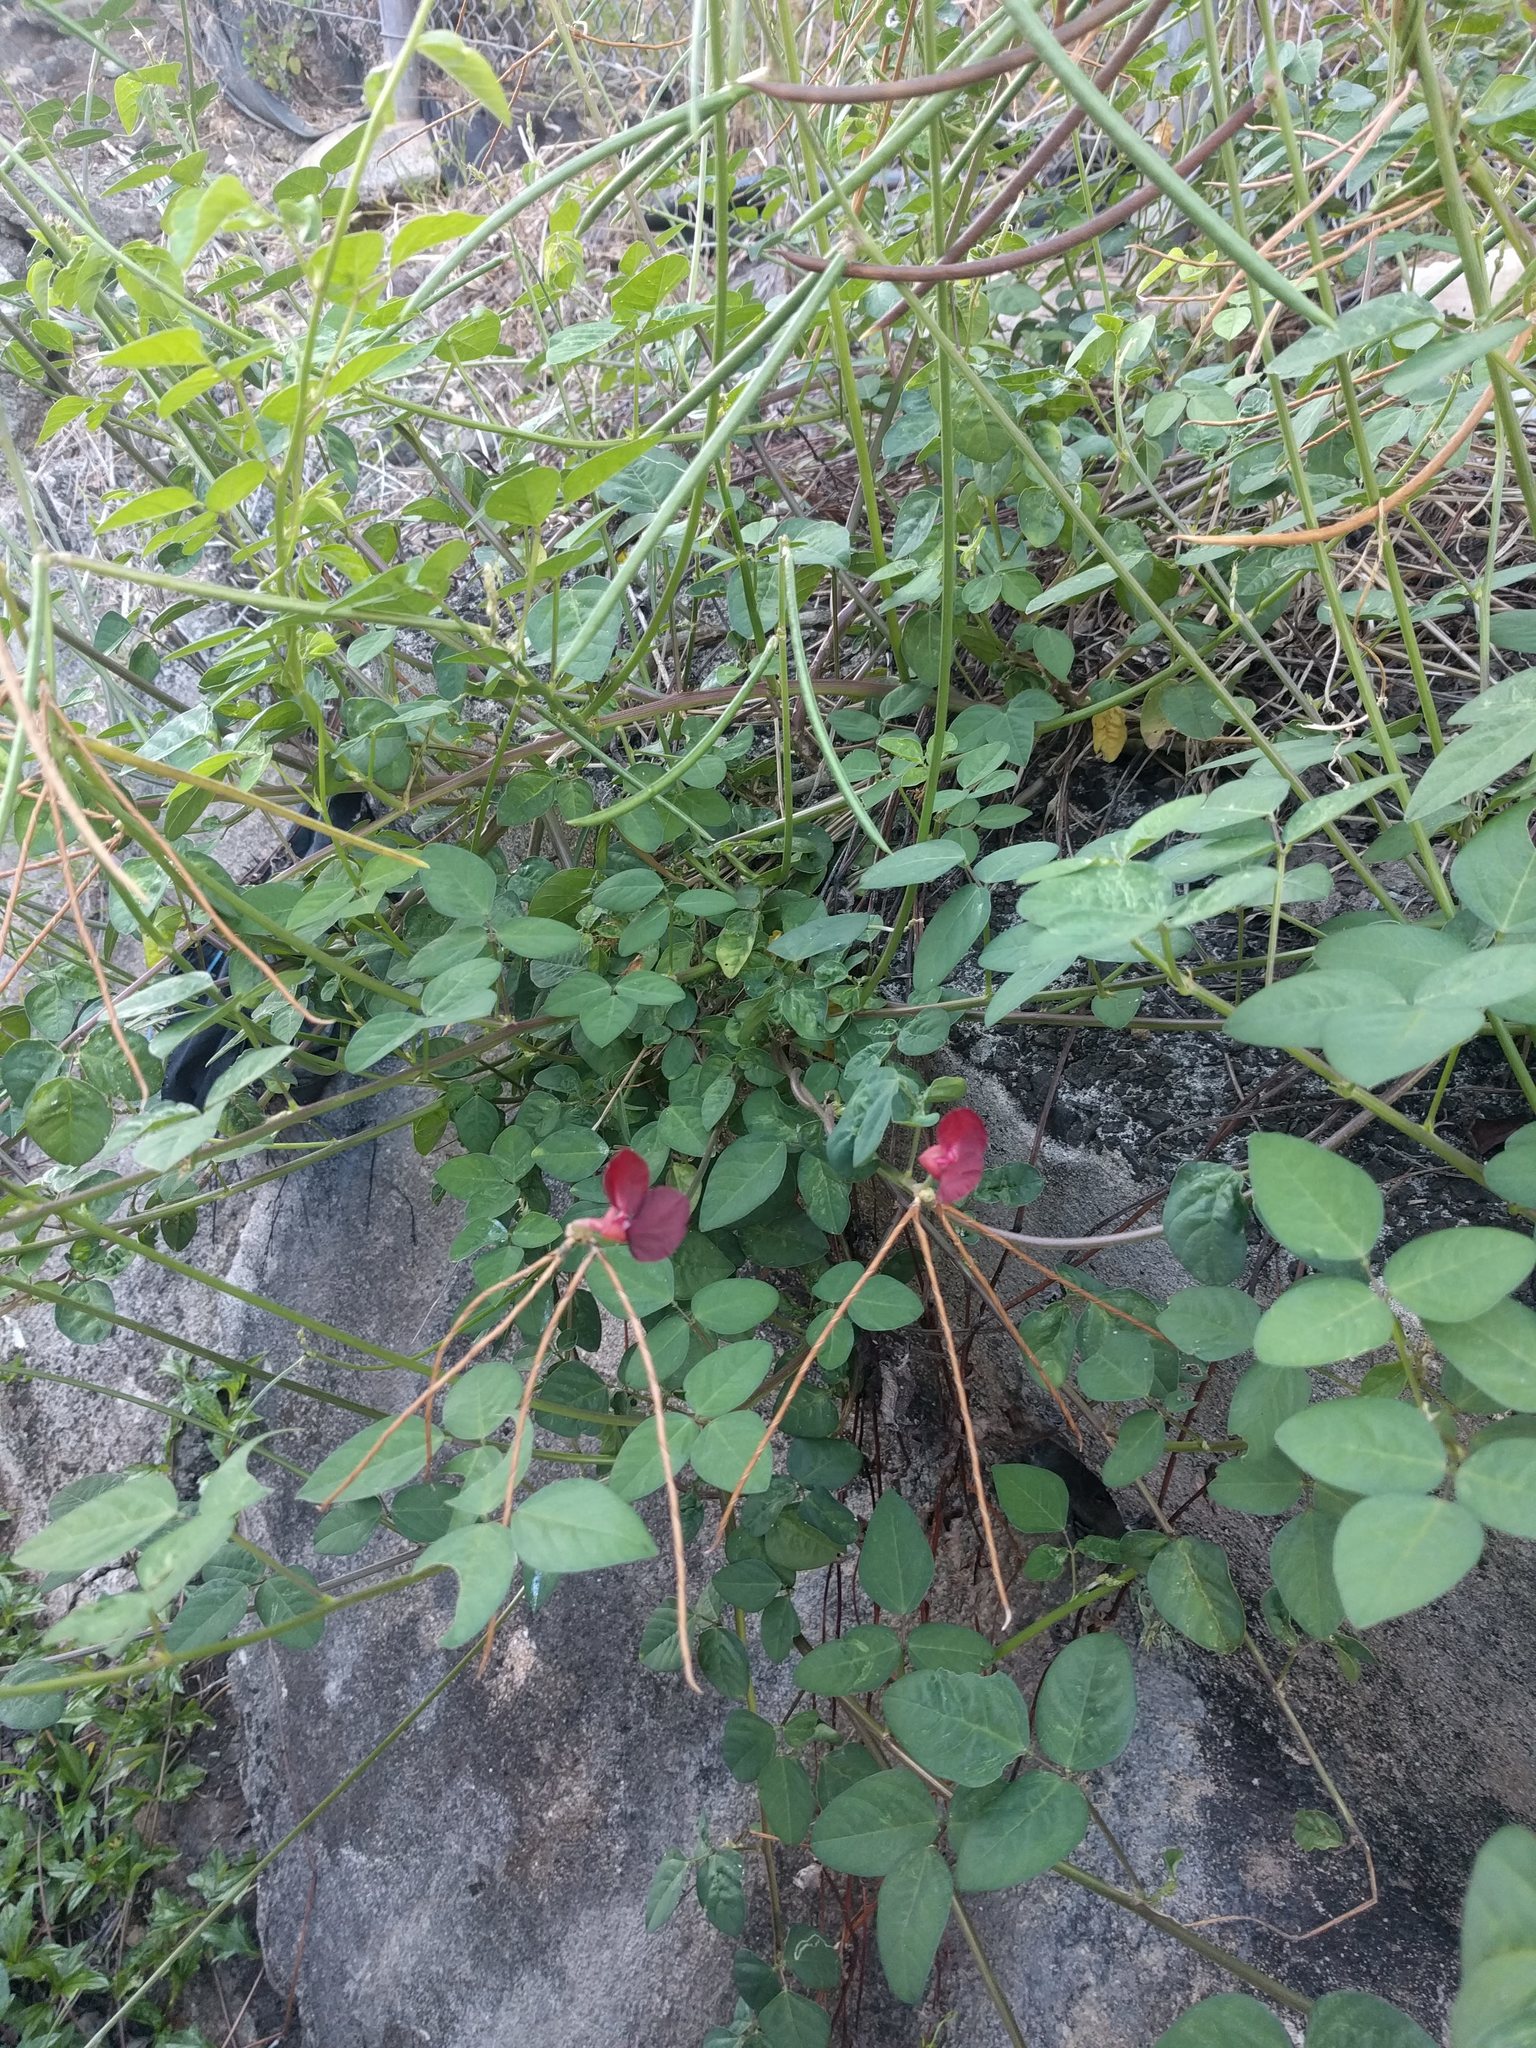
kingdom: Plantae
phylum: Tracheophyta
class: Magnoliopsida
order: Fabales
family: Fabaceae
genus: Macroptilium
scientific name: Macroptilium lathyroides
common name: Wild bushbean
